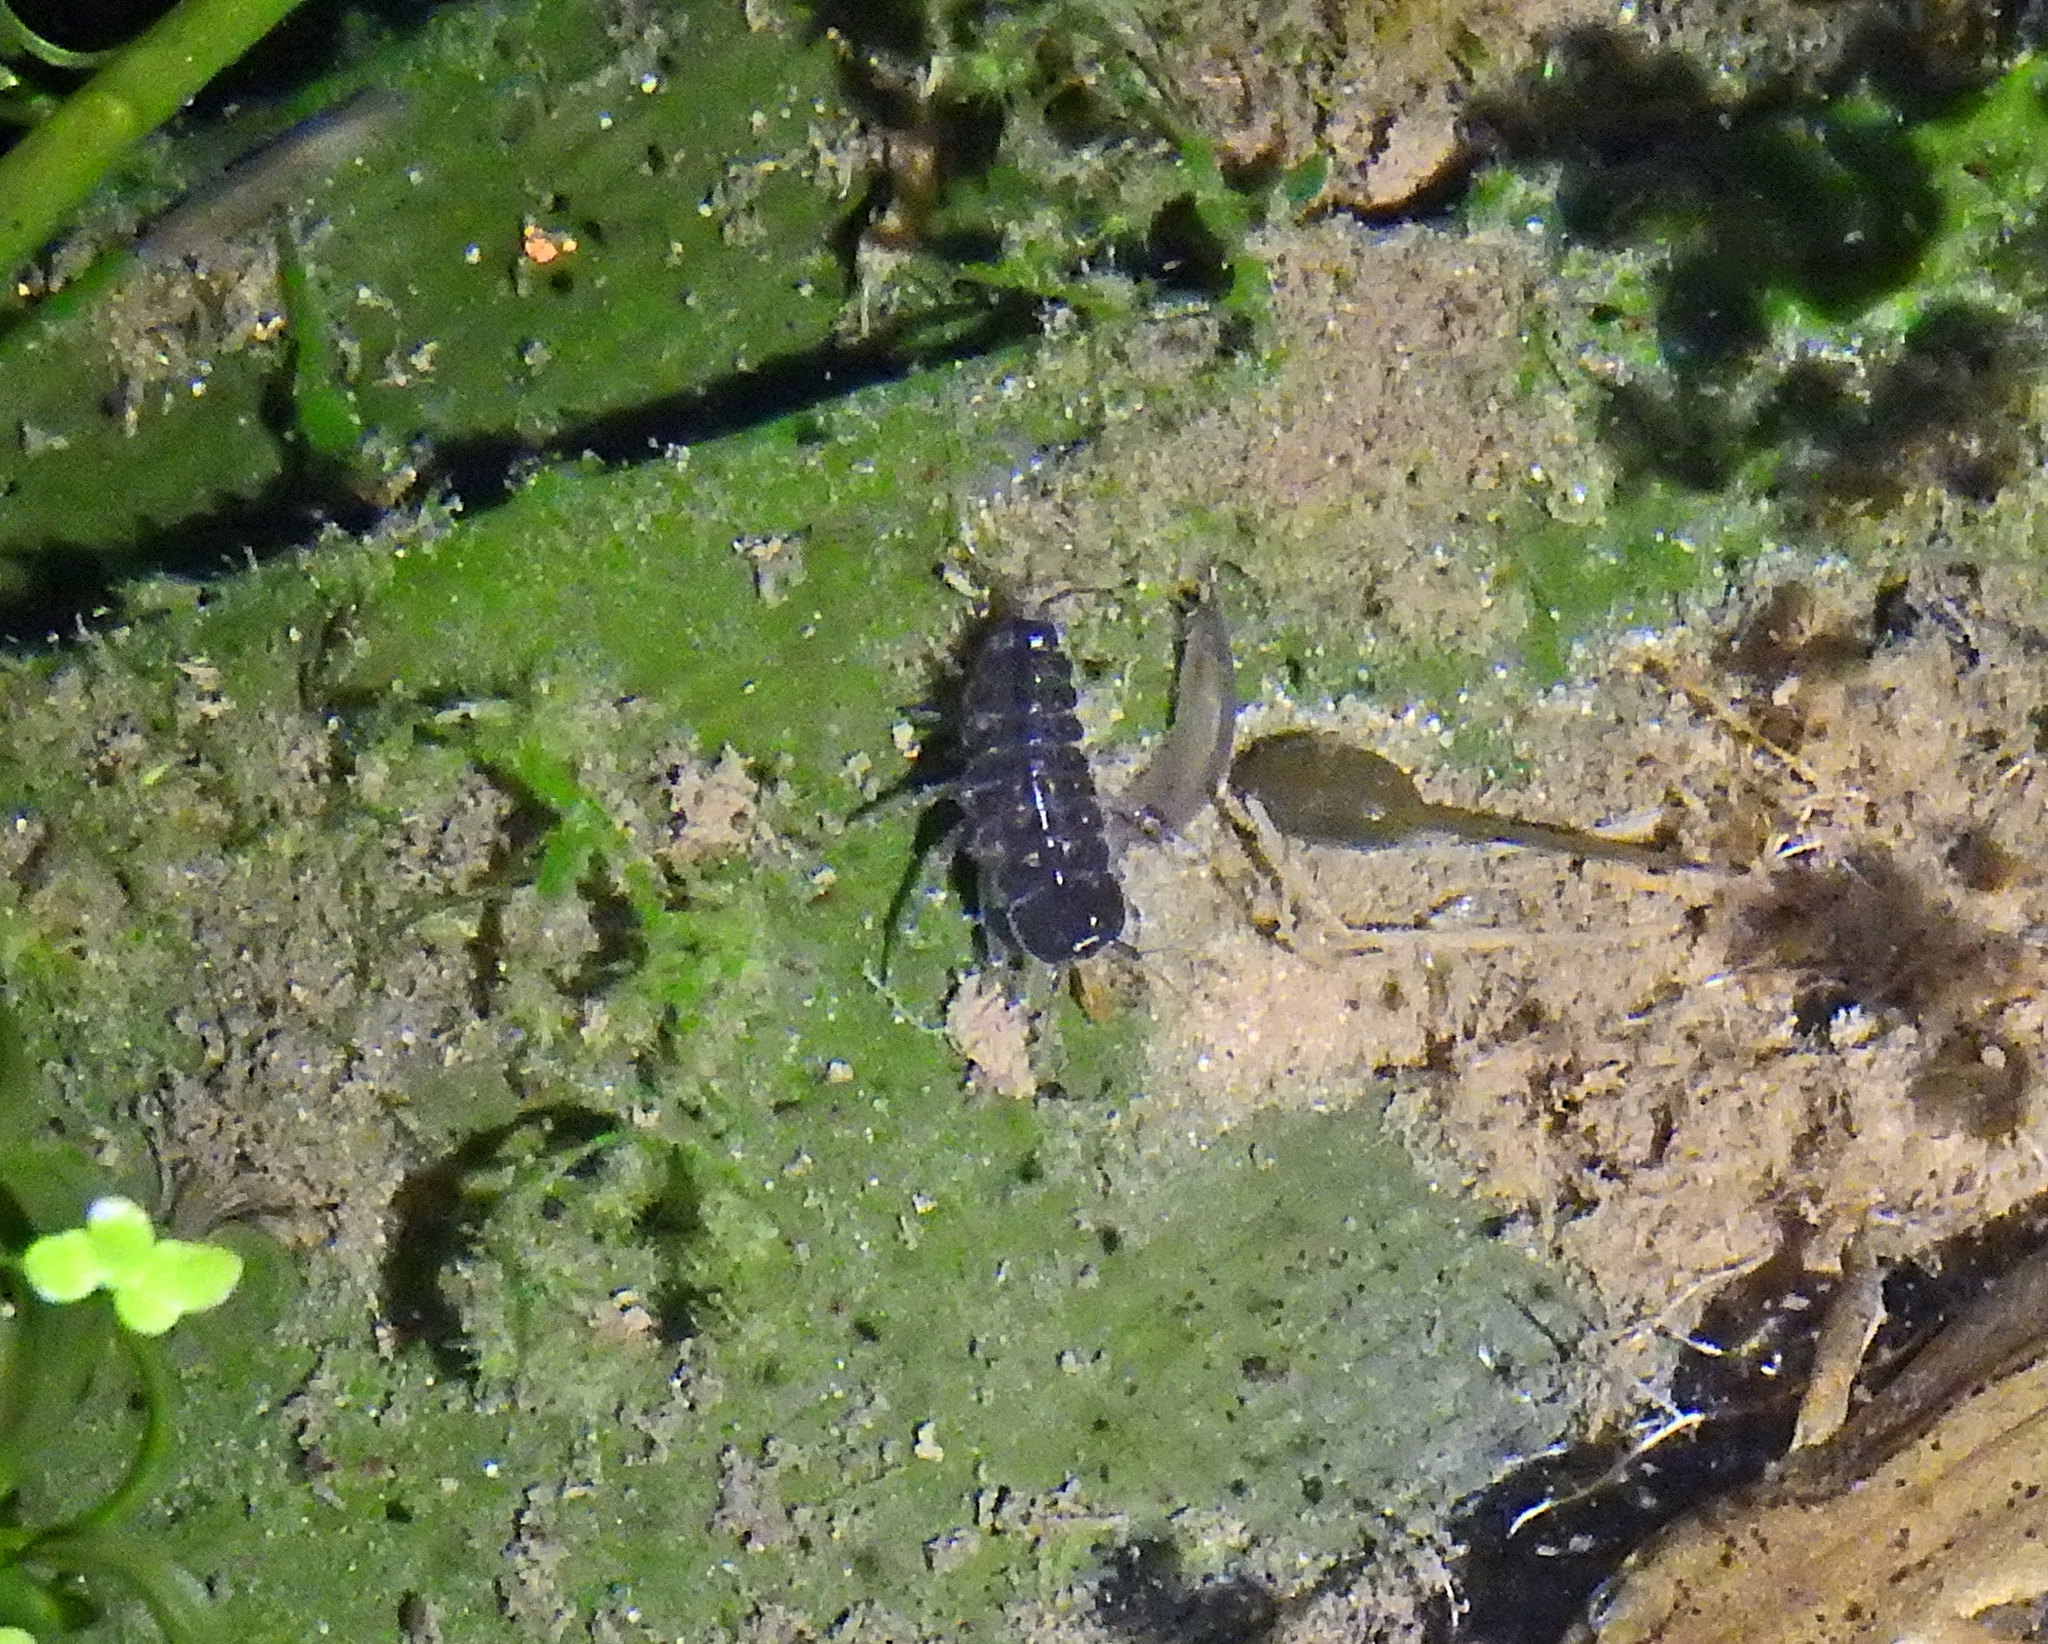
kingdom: Animalia
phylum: Chordata
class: Amphibia
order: Anura
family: Ranidae
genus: Rana
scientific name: Rana temporaria
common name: Common frog
